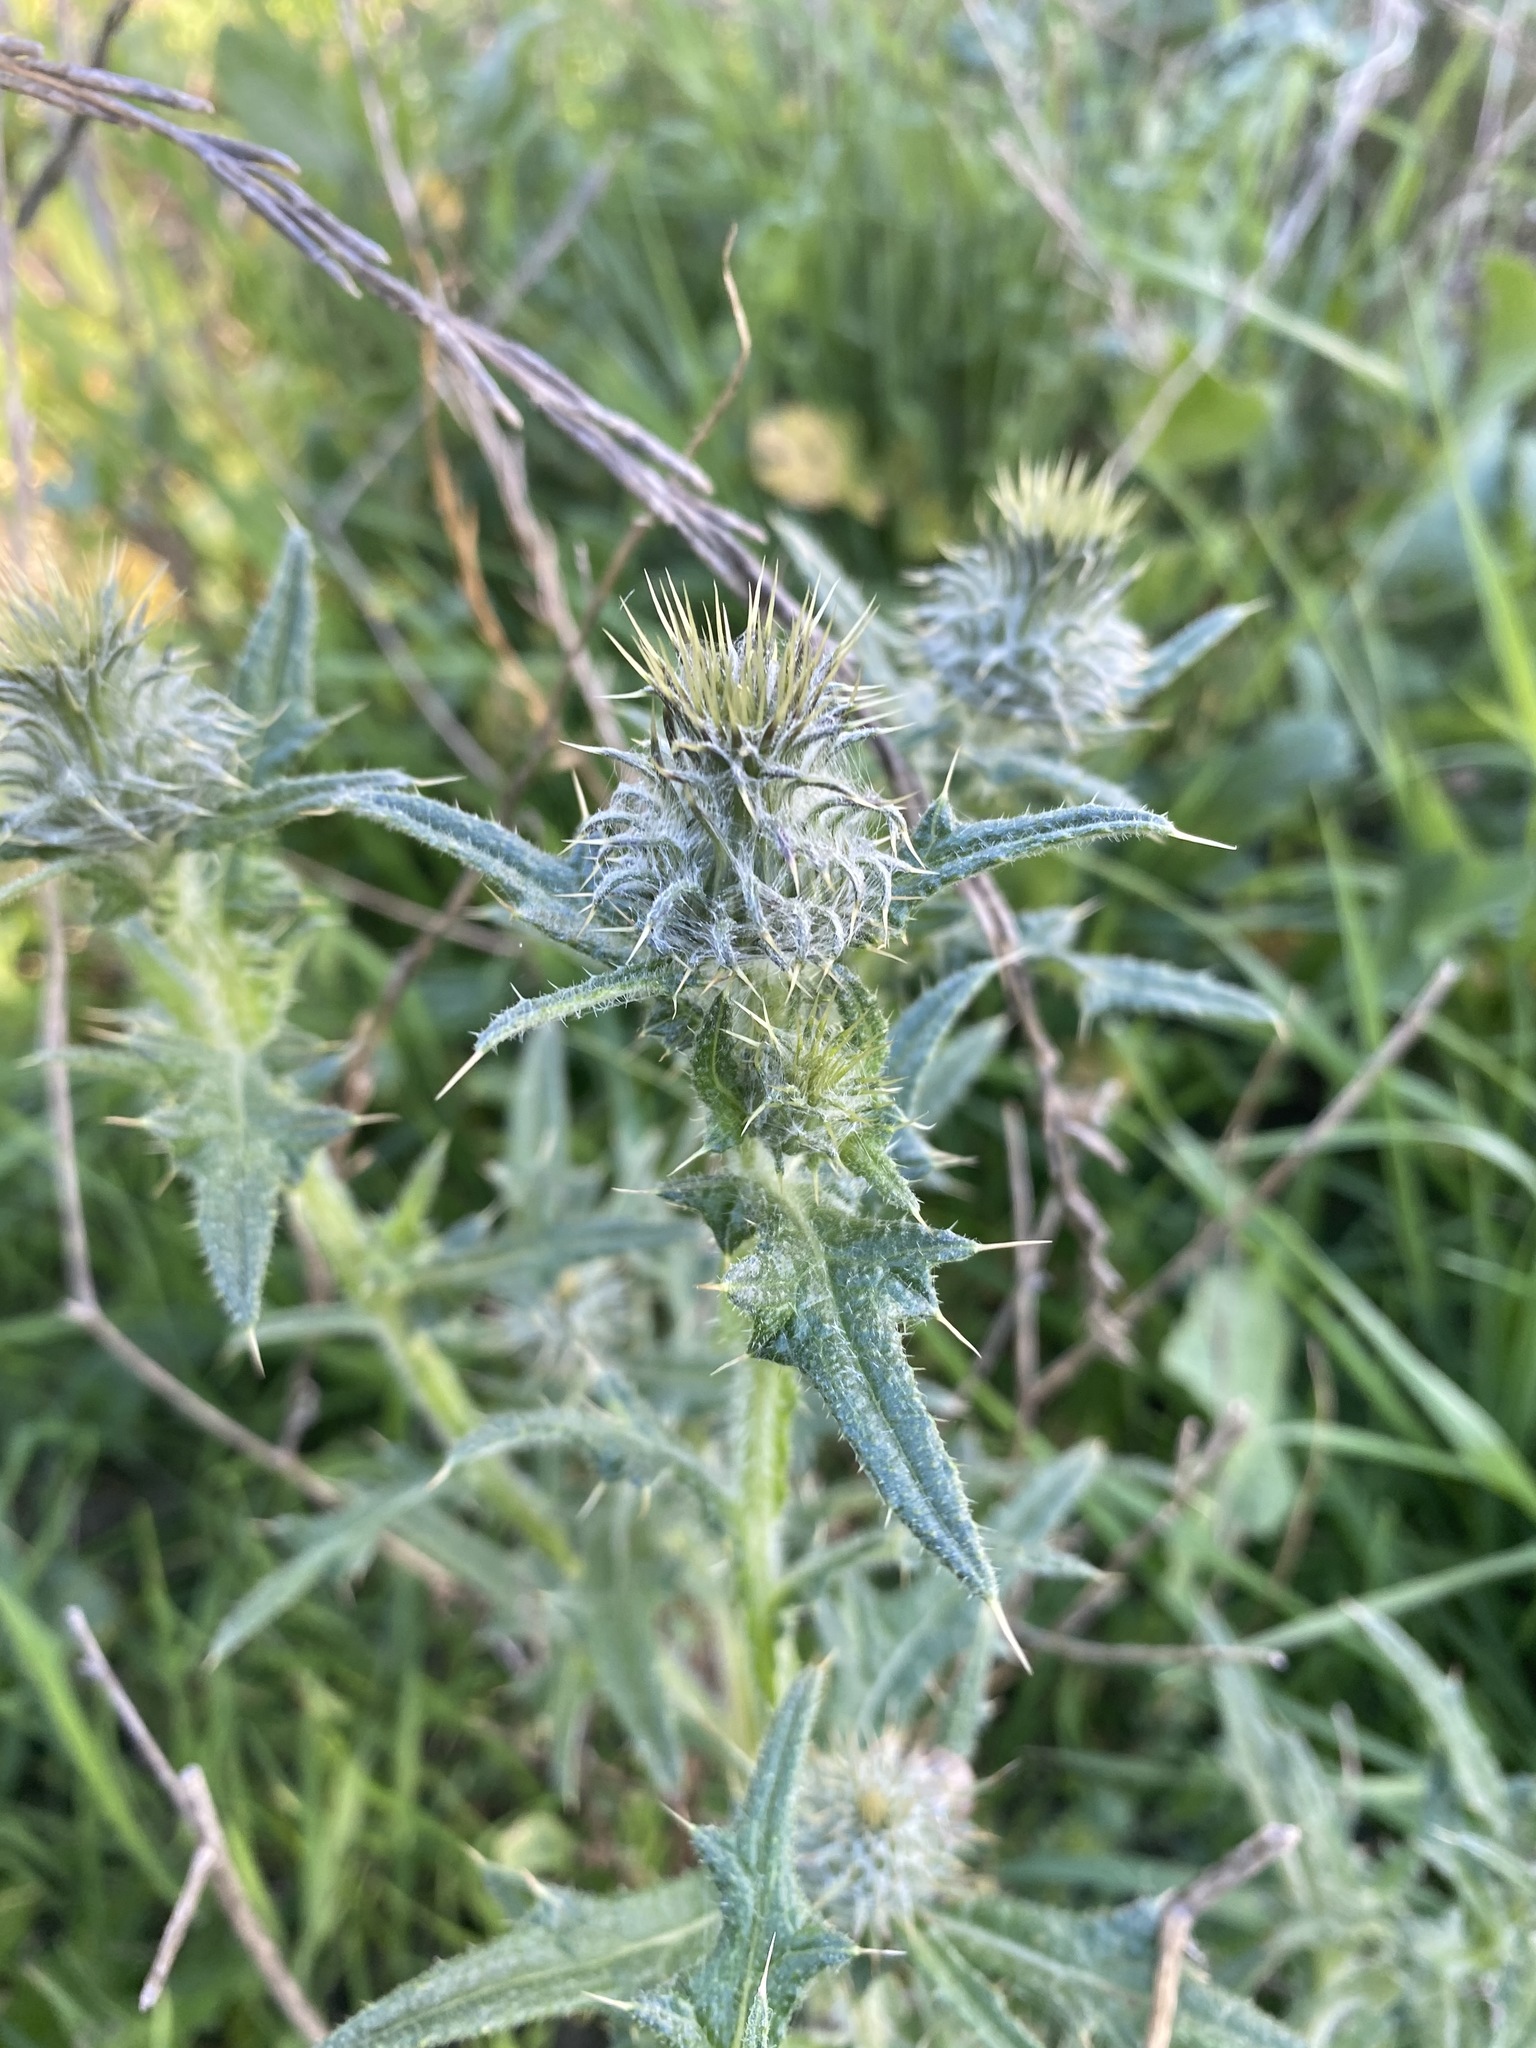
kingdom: Plantae
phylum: Tracheophyta
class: Magnoliopsida
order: Asterales
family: Asteraceae
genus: Cirsium
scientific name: Cirsium vulgare
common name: Bull thistle
